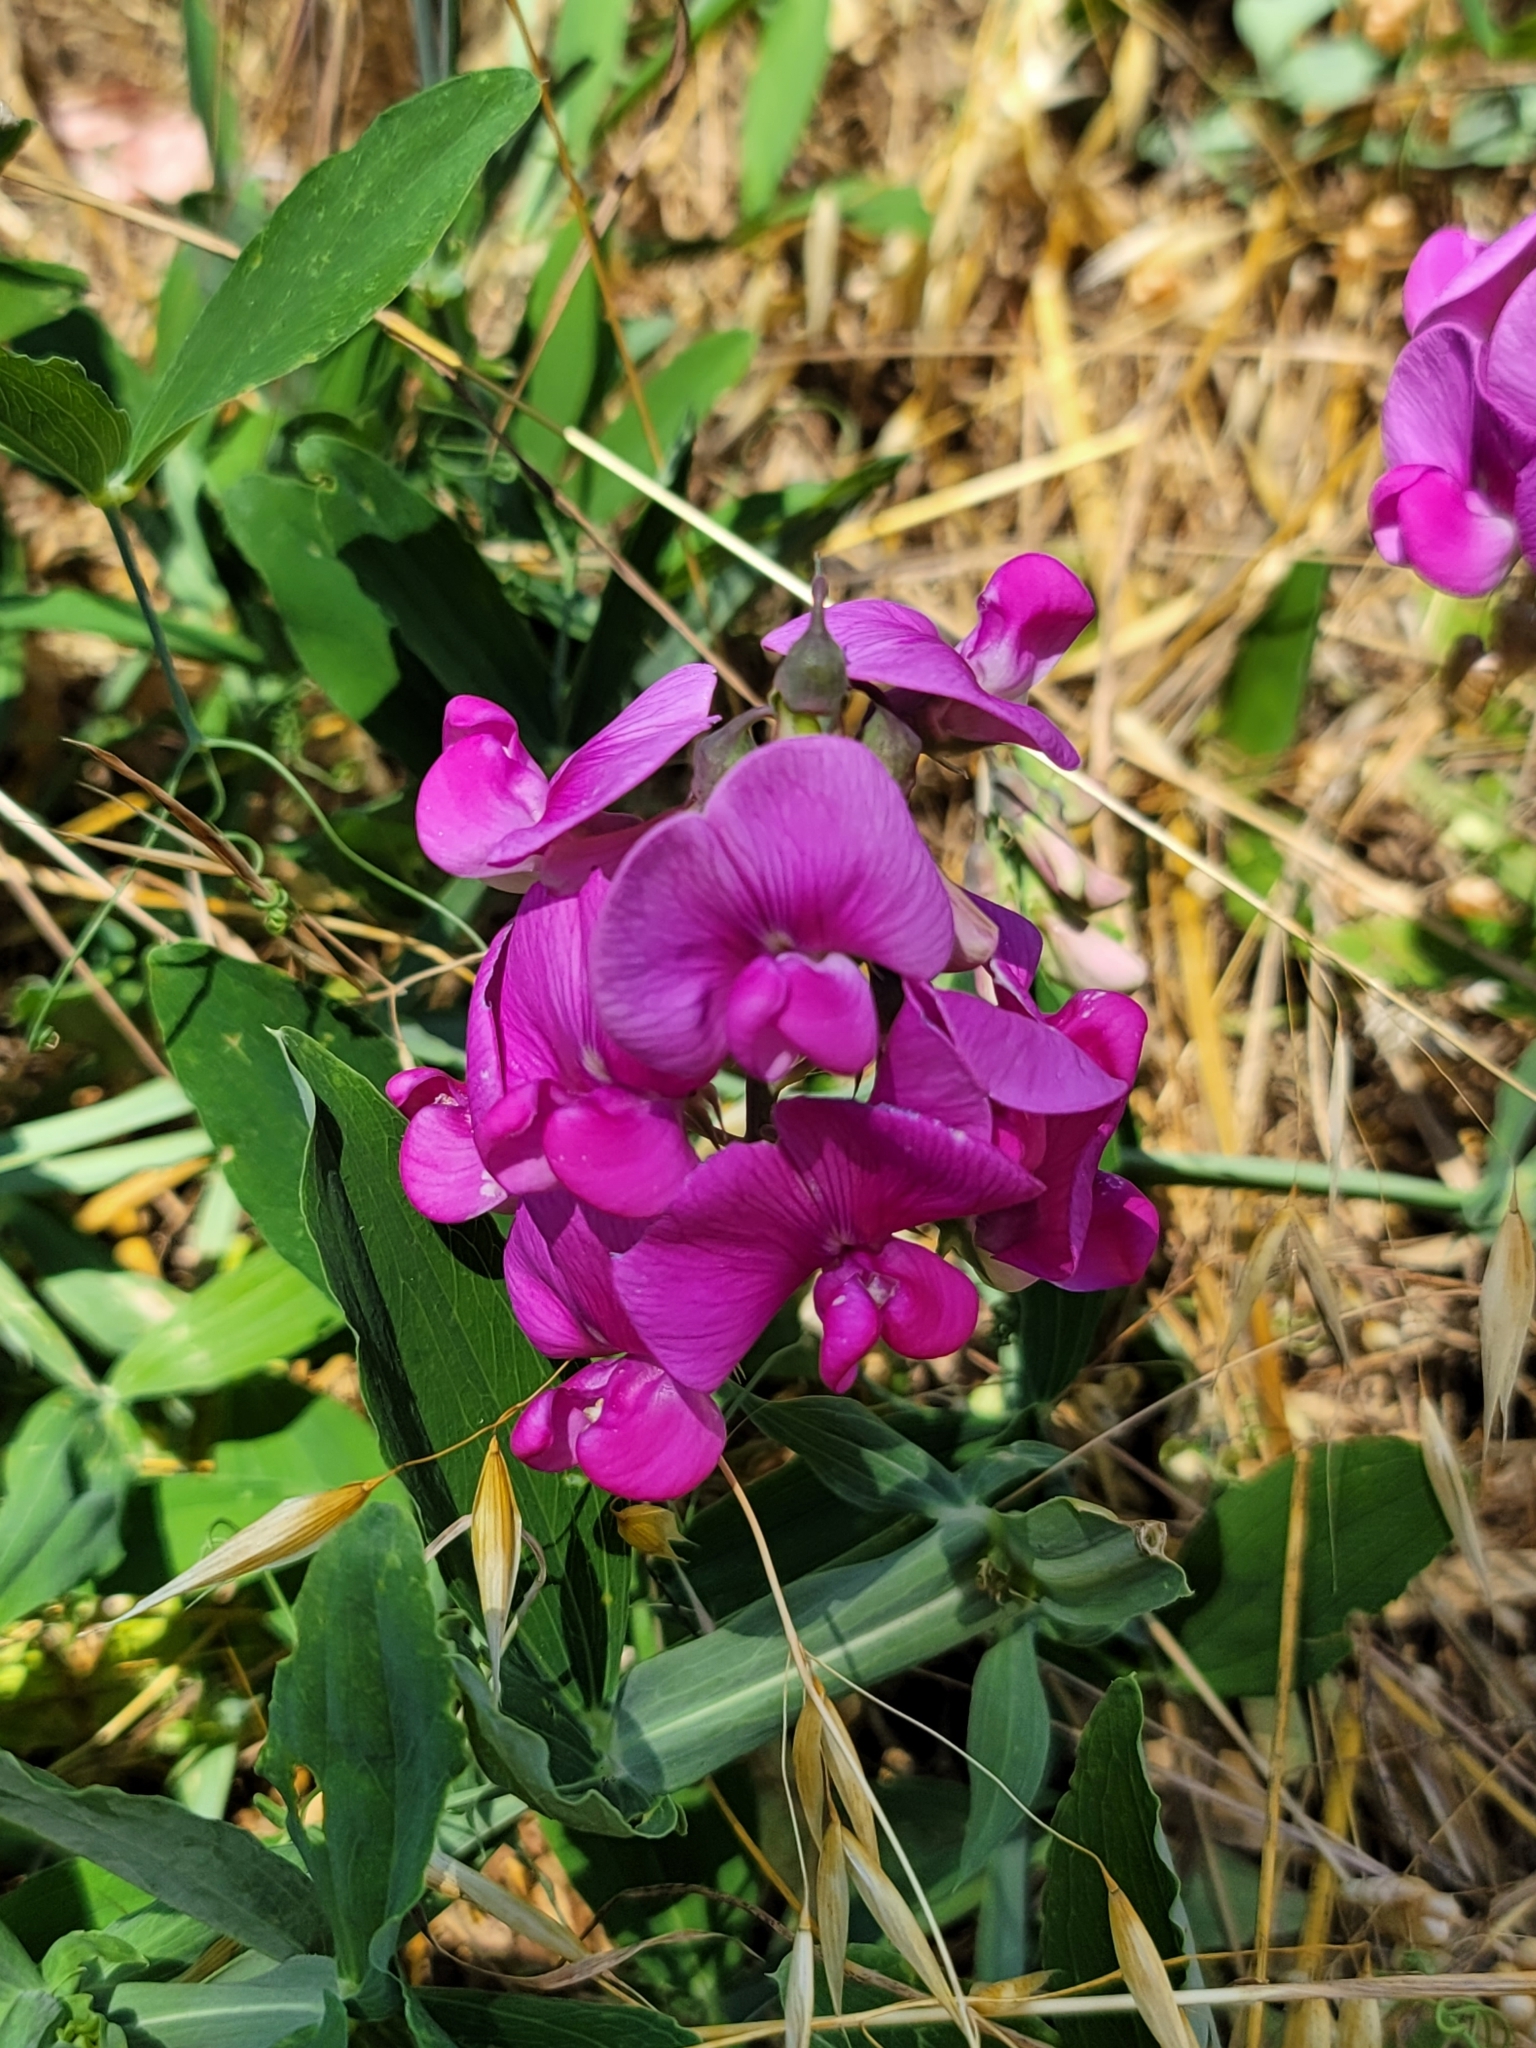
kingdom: Plantae
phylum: Tracheophyta
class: Magnoliopsida
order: Fabales
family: Fabaceae
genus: Lathyrus
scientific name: Lathyrus latifolius
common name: Perennial pea
